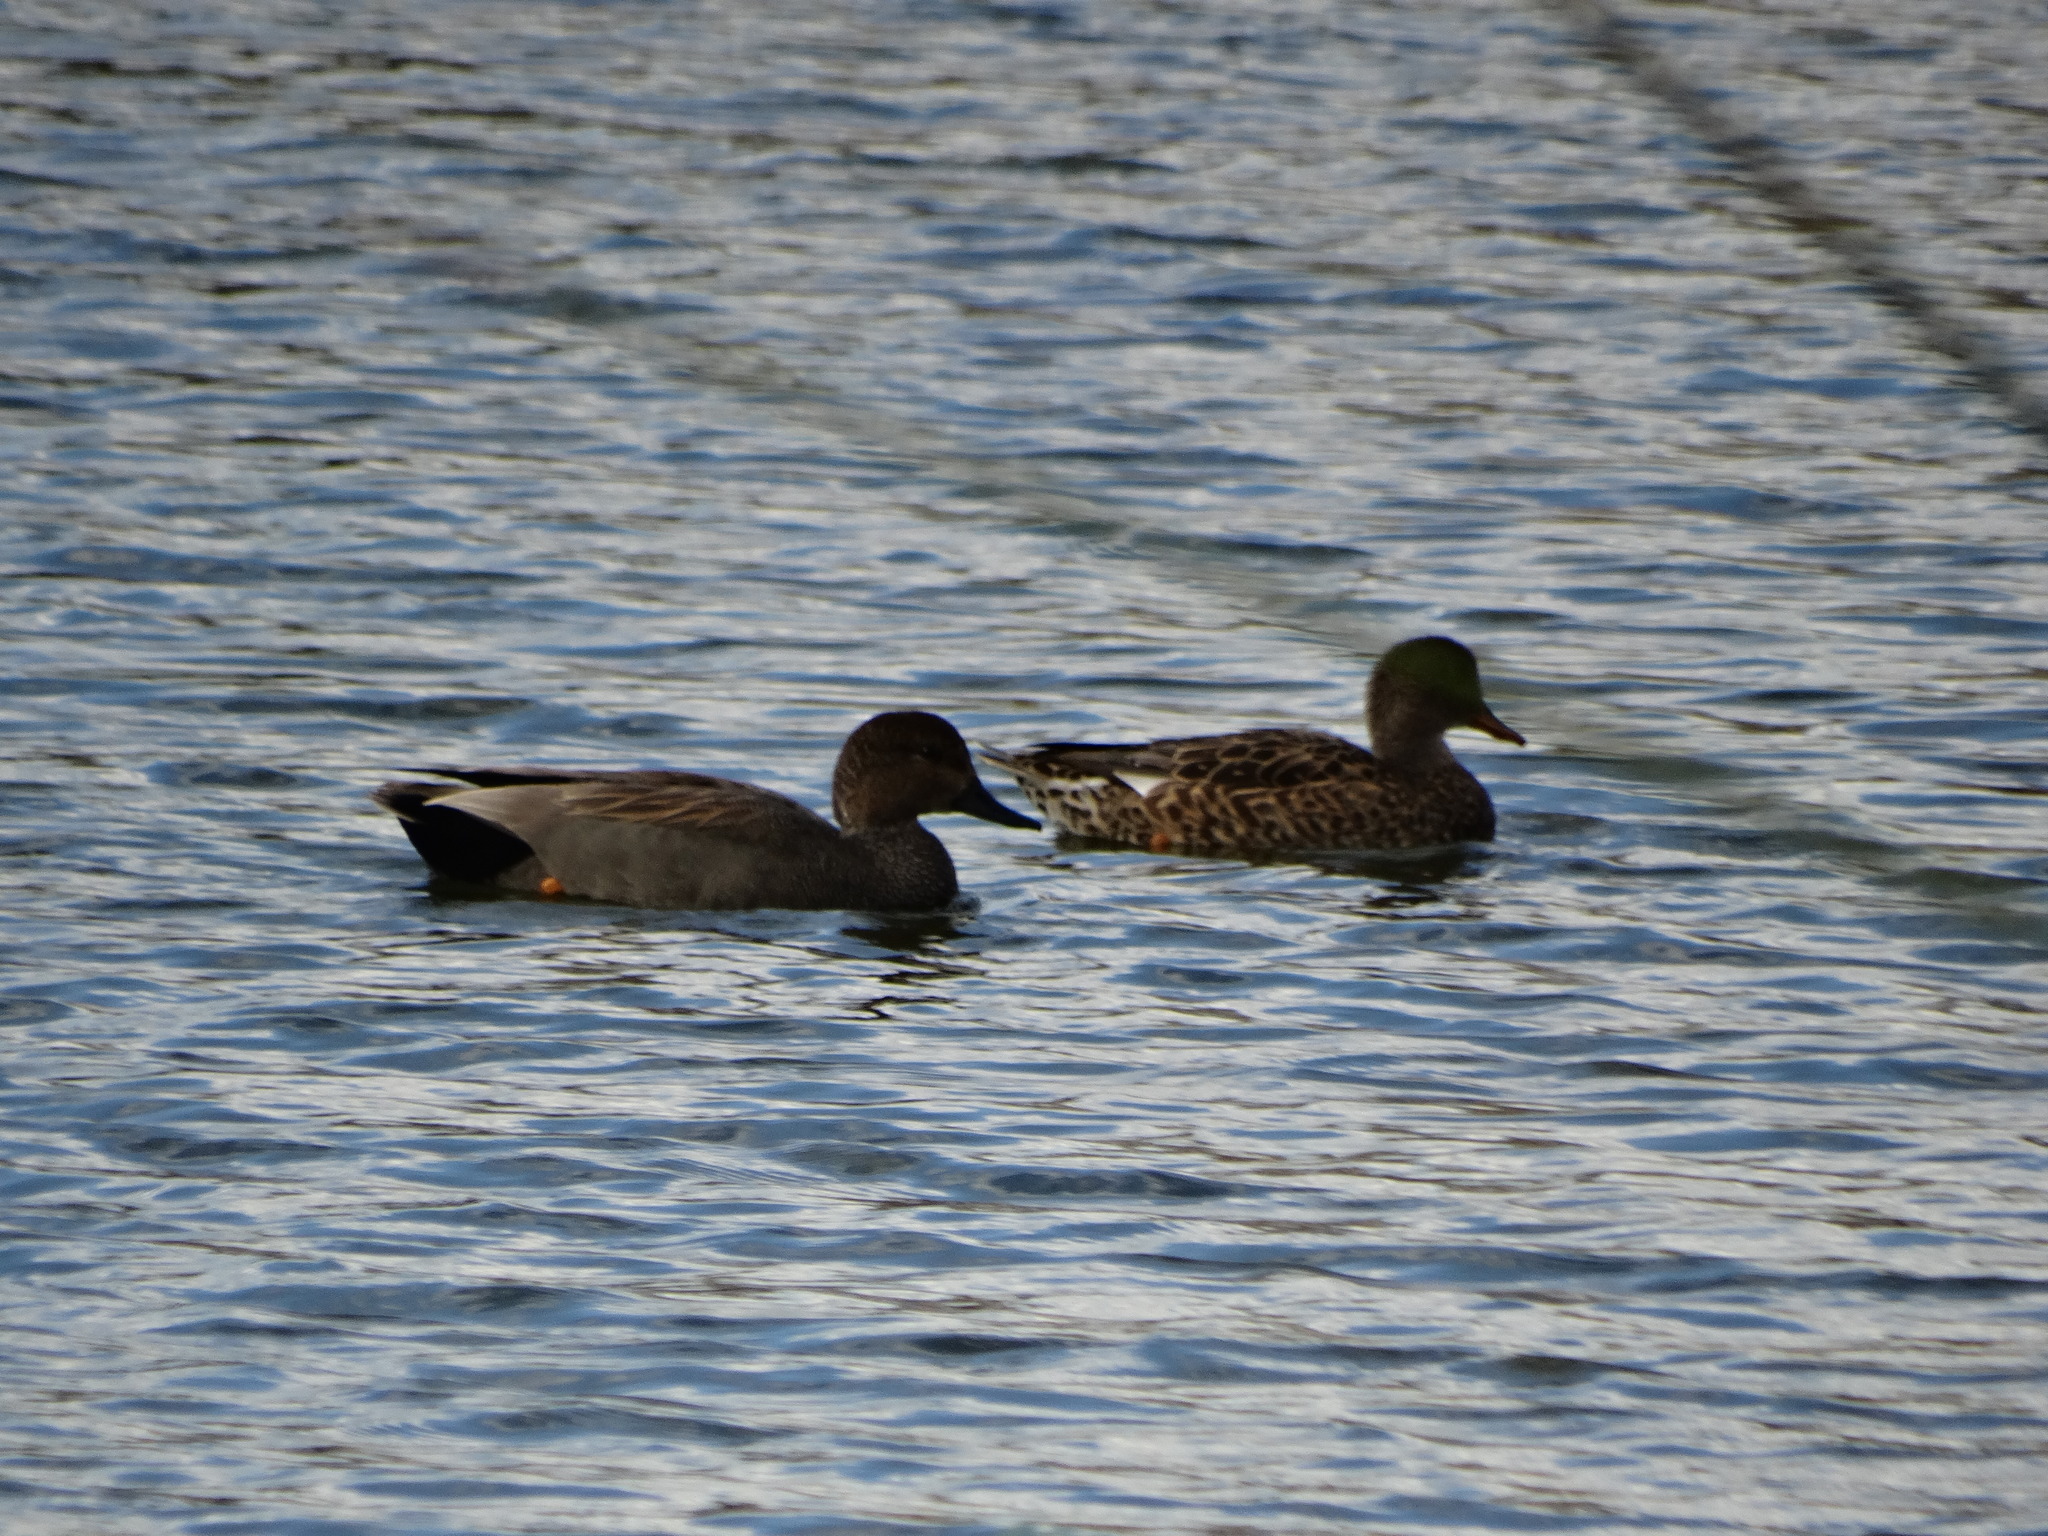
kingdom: Animalia
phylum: Chordata
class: Aves
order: Anseriformes
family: Anatidae
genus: Mareca
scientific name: Mareca strepera
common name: Gadwall
